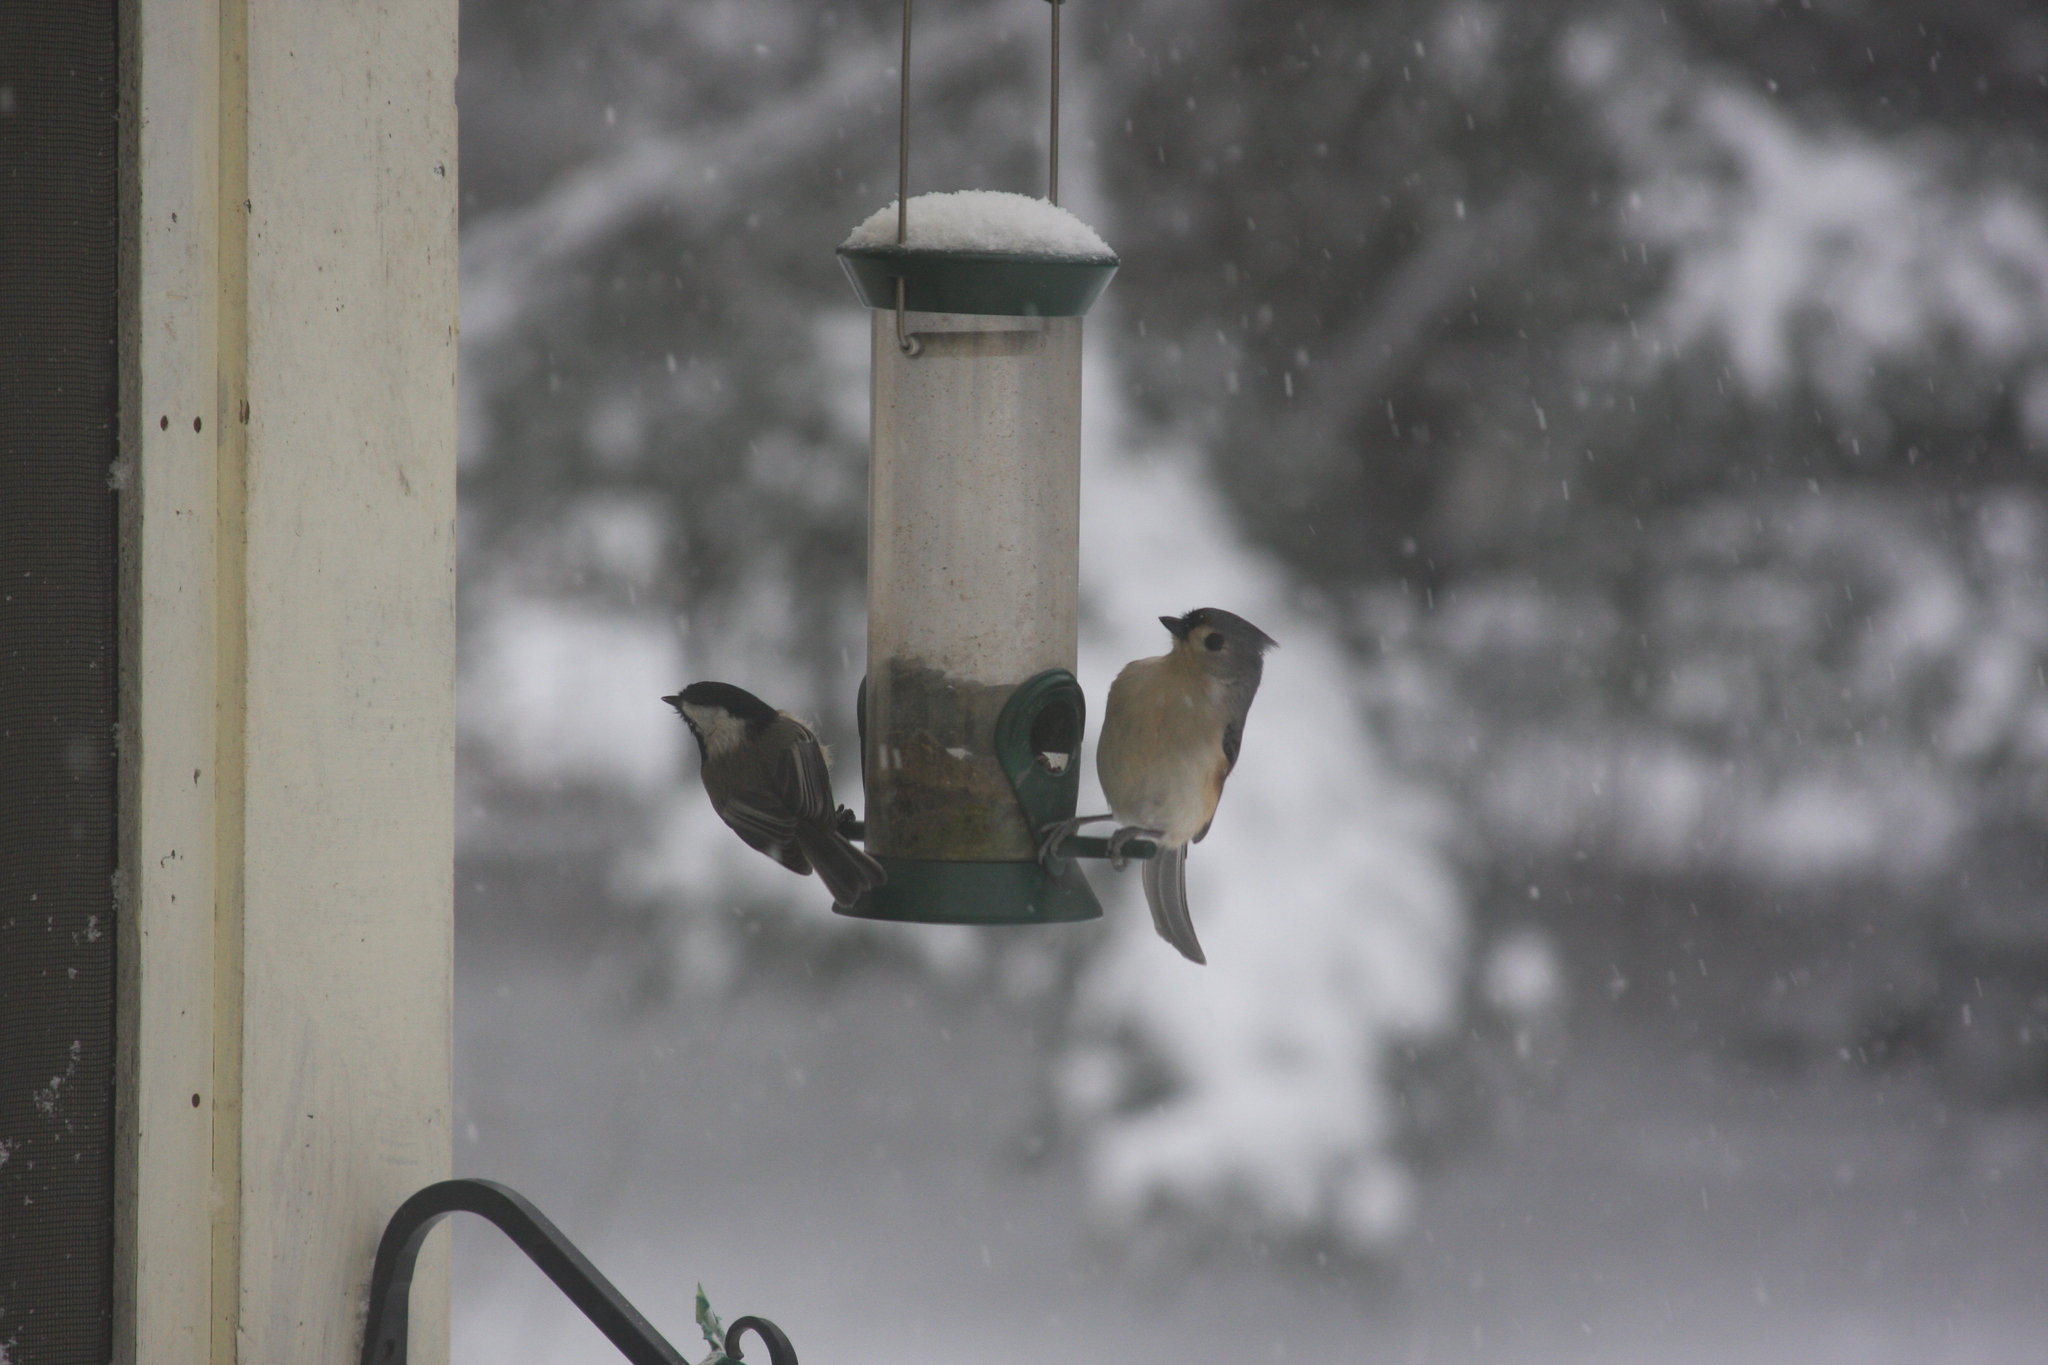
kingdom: Animalia
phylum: Chordata
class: Aves
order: Passeriformes
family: Paridae
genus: Poecile
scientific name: Poecile atricapillus
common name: Black-capped chickadee
